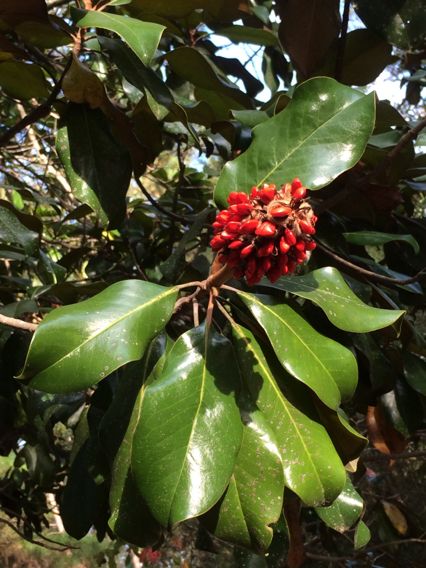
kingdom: Plantae
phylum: Tracheophyta
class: Magnoliopsida
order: Magnoliales
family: Magnoliaceae
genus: Magnolia
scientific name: Magnolia grandiflora
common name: Southern magnolia
